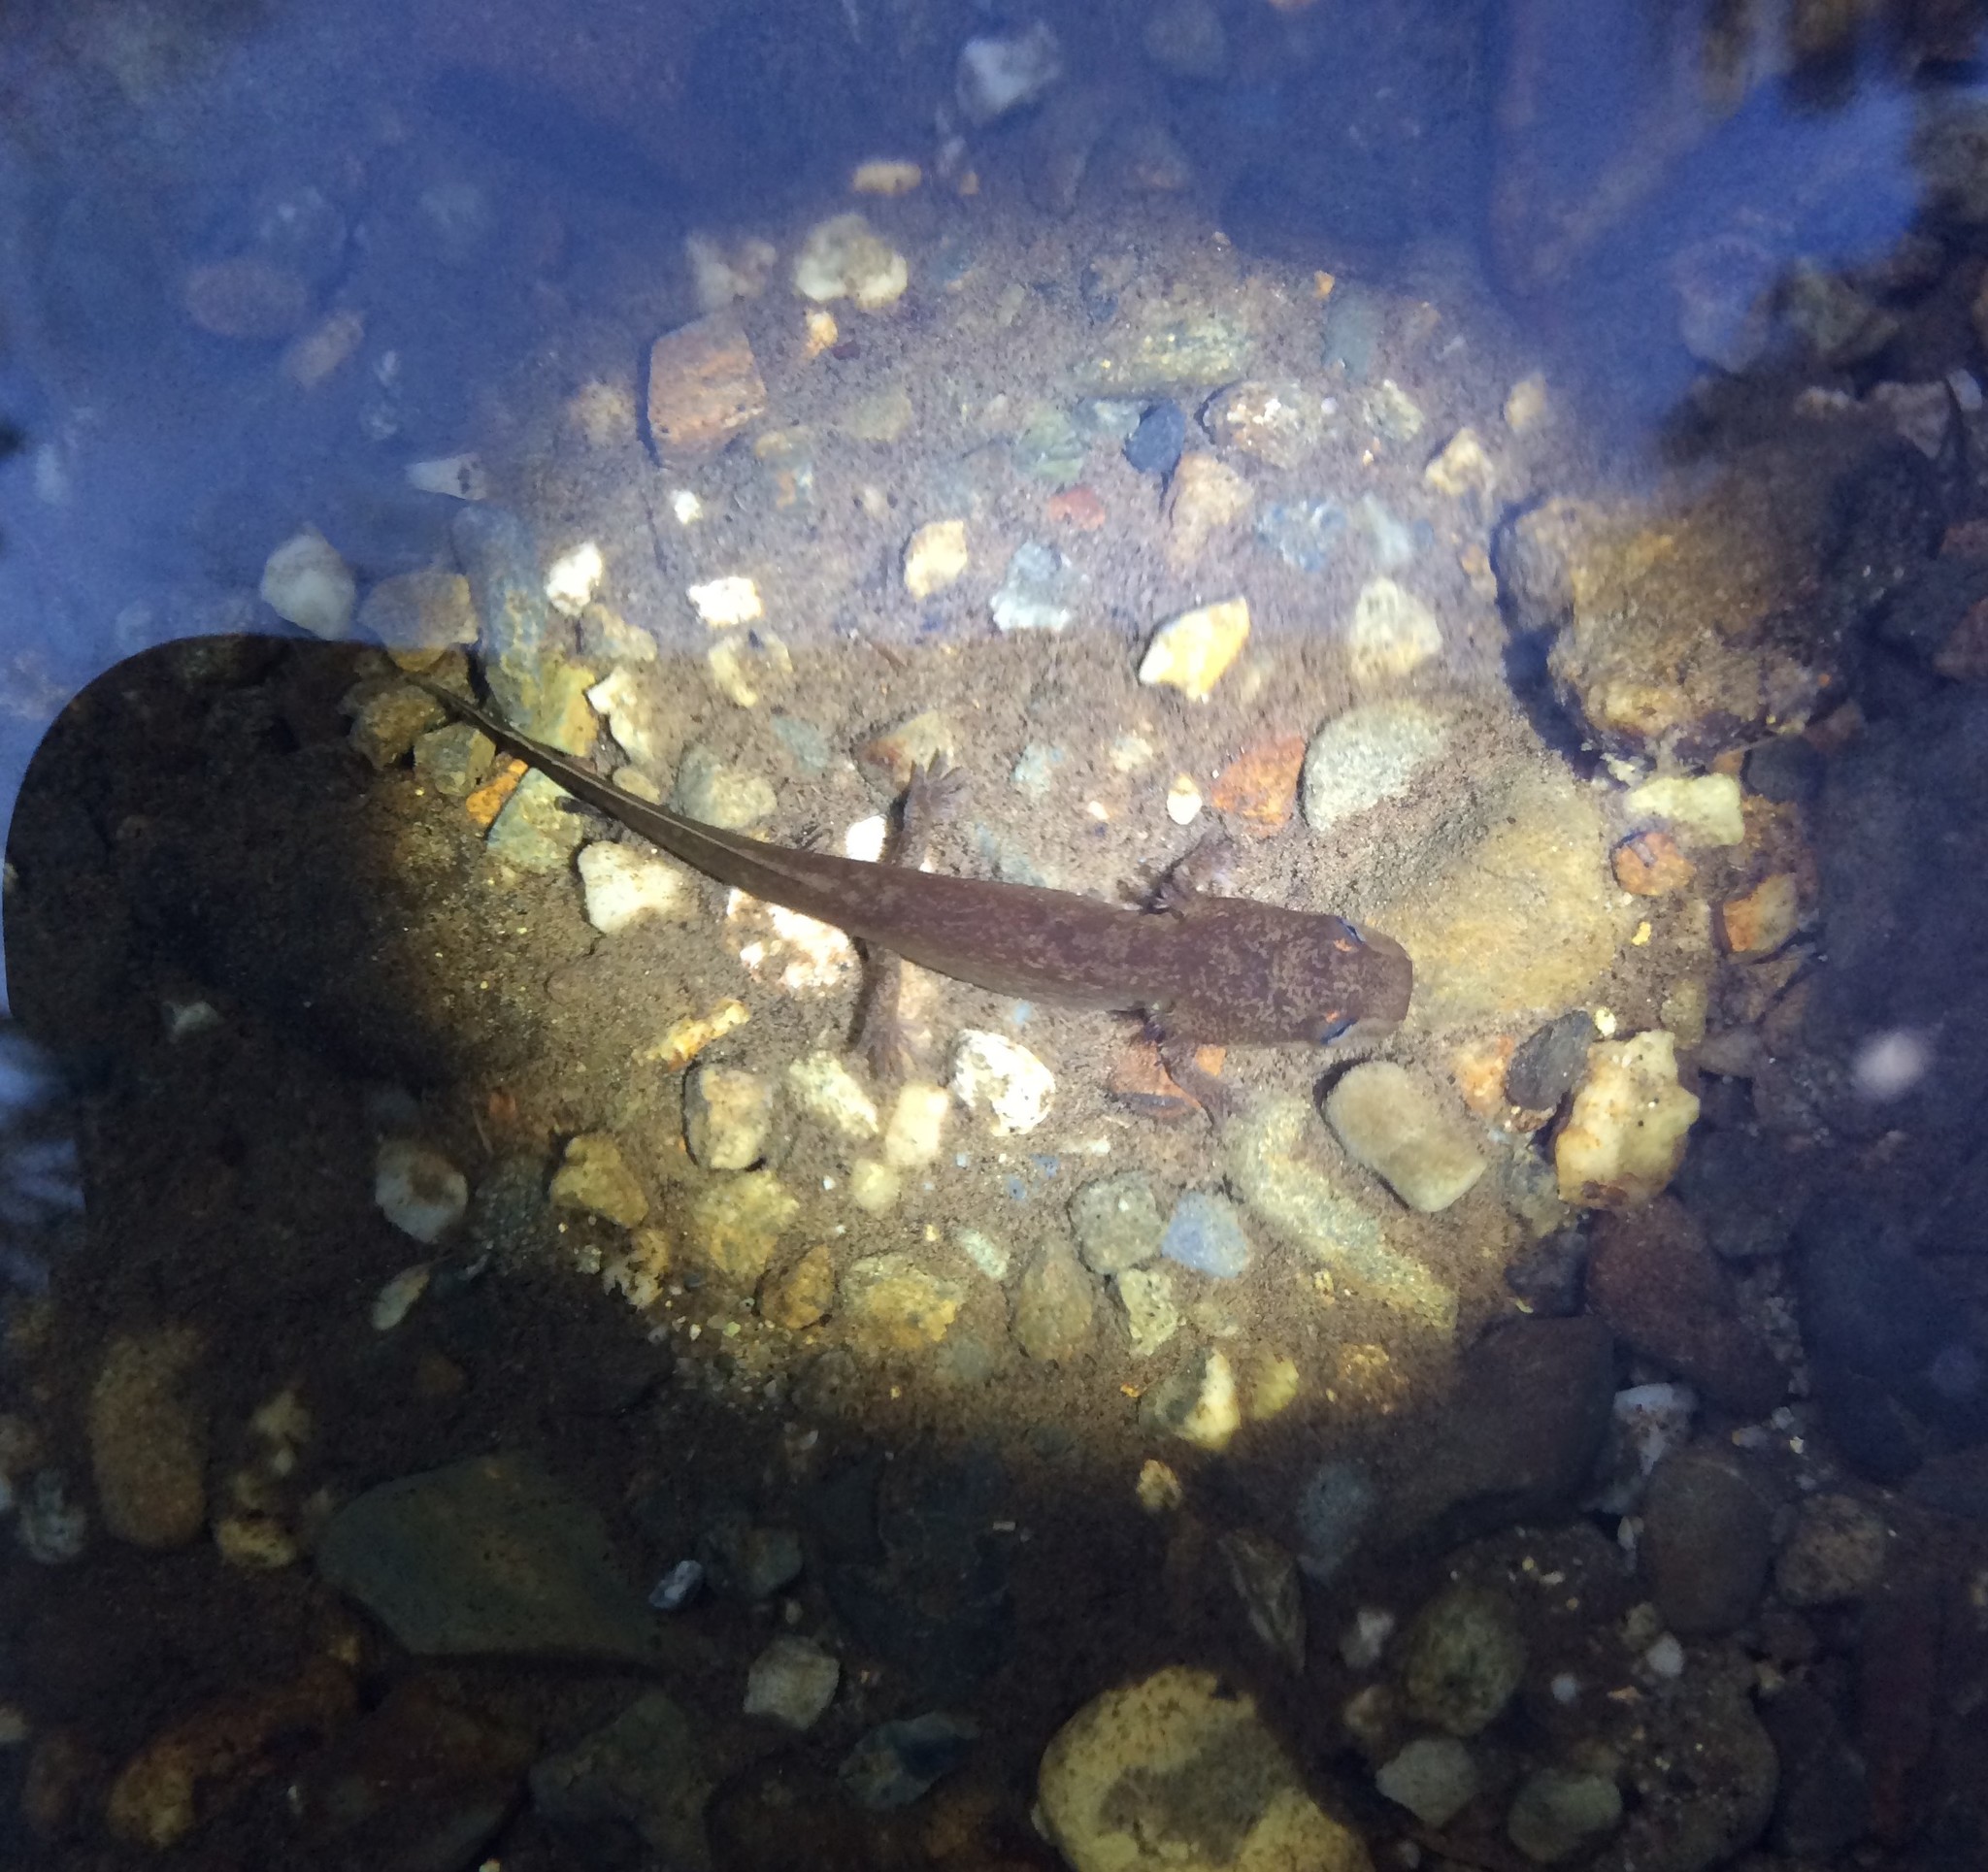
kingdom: Animalia
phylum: Chordata
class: Amphibia
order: Caudata
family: Ambystomatidae
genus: Dicamptodon
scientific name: Dicamptodon tenebrosus
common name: Coastal giant salamander
